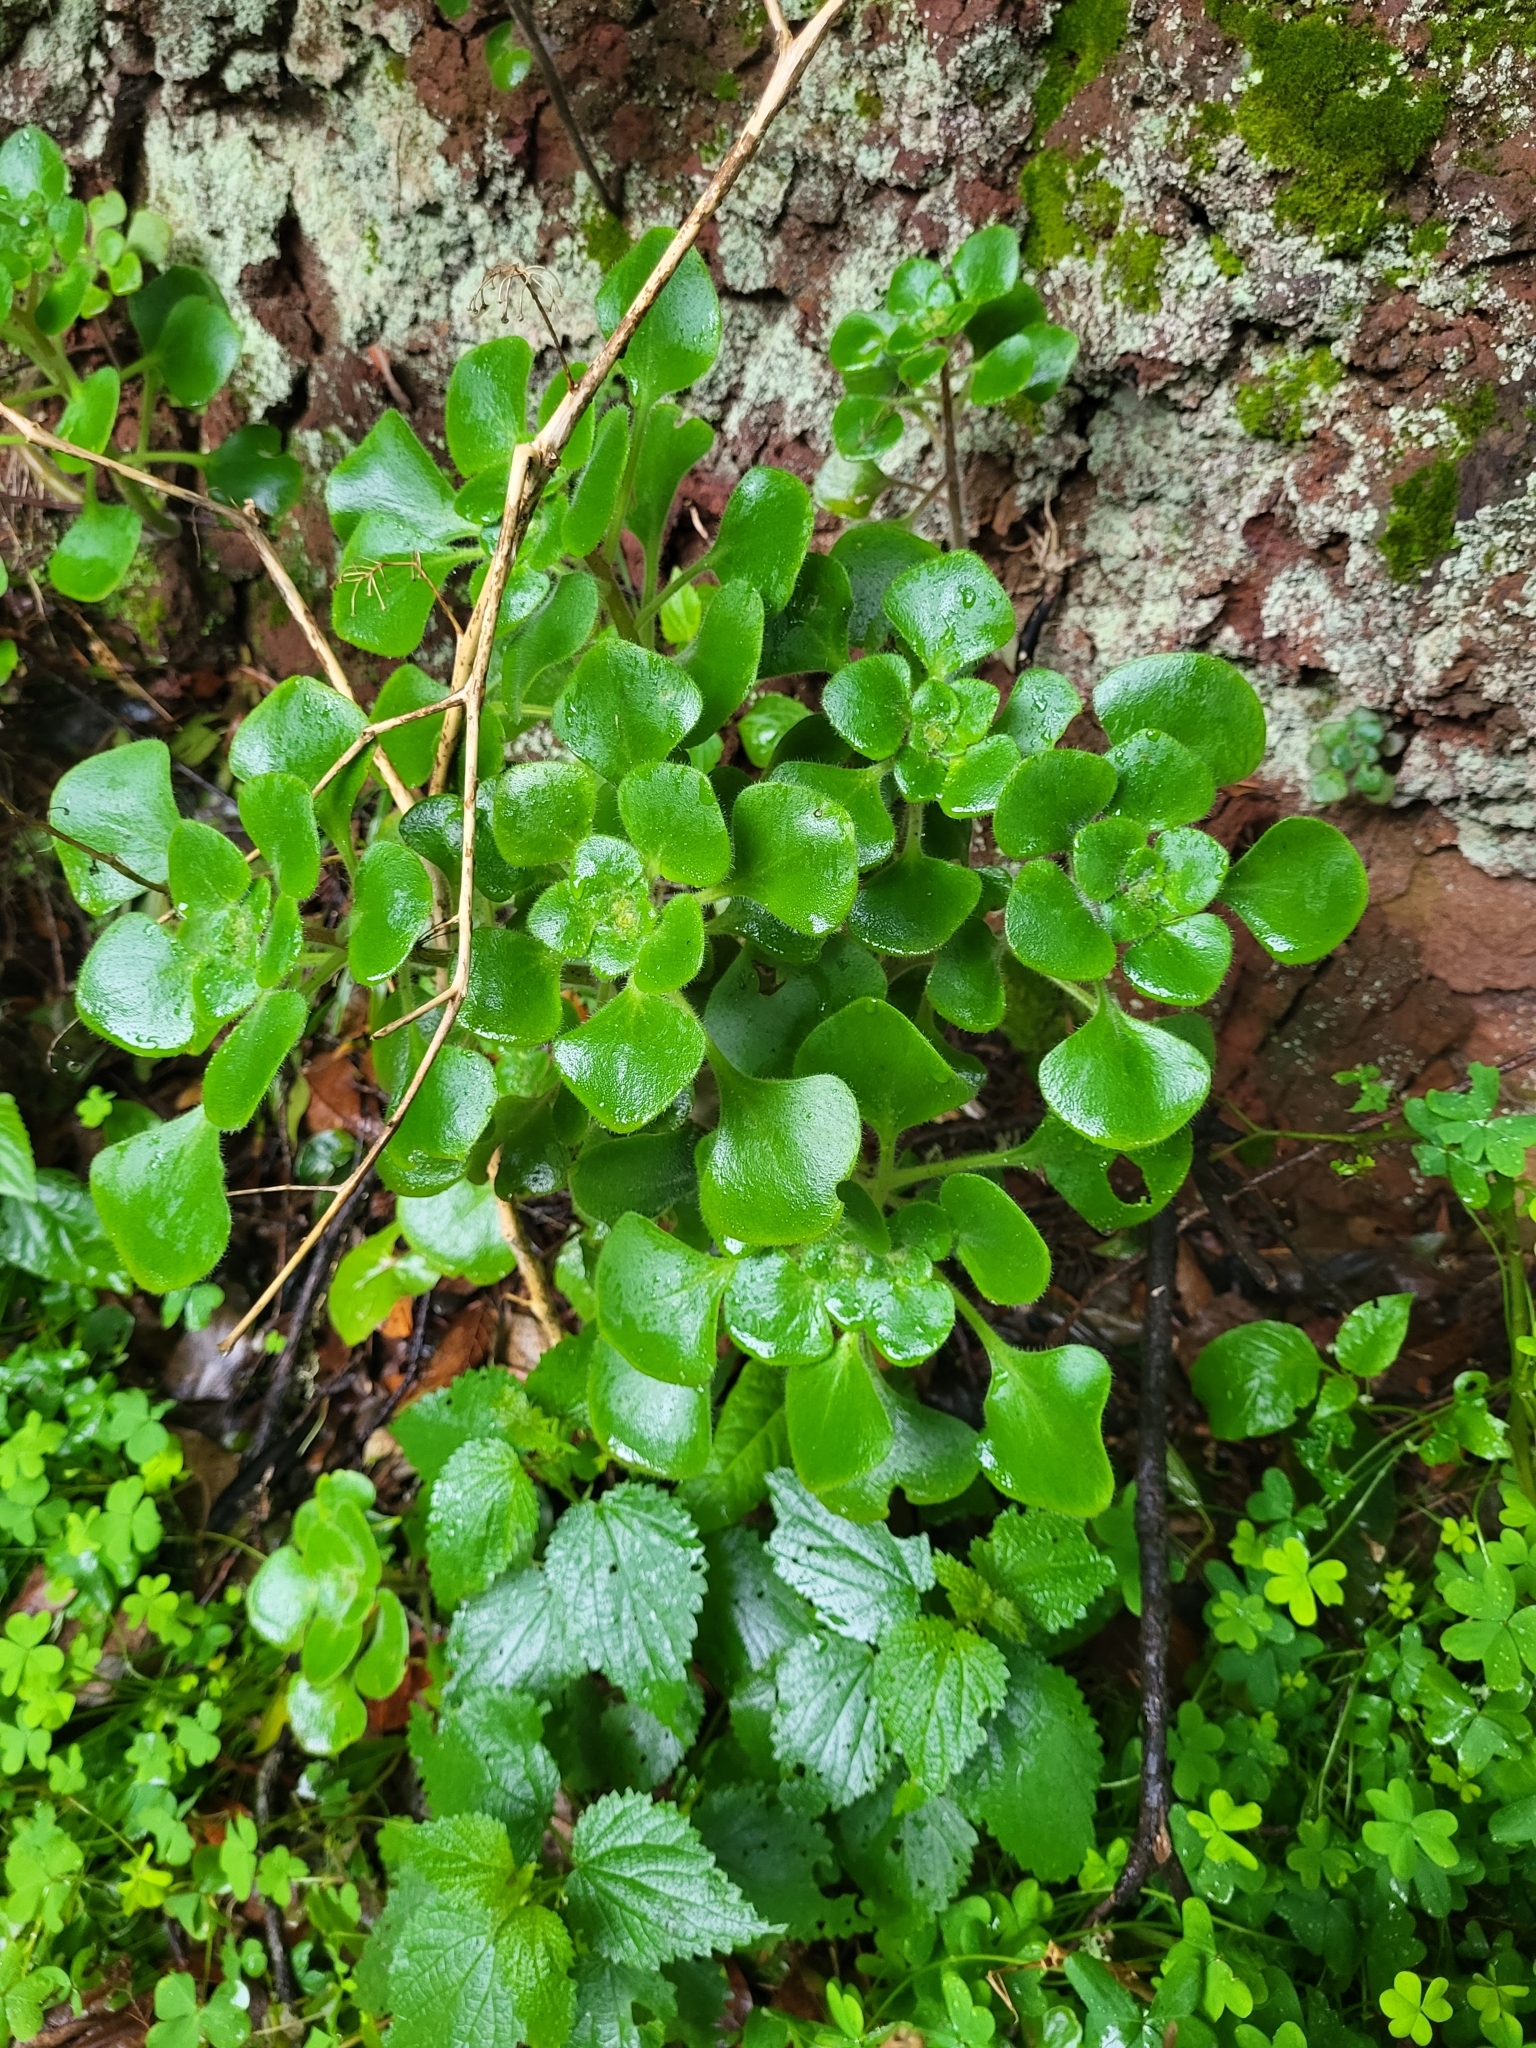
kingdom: Plantae
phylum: Tracheophyta
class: Magnoliopsida
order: Saxifragales
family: Crassulaceae
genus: Aichryson
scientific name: Aichryson laxum
